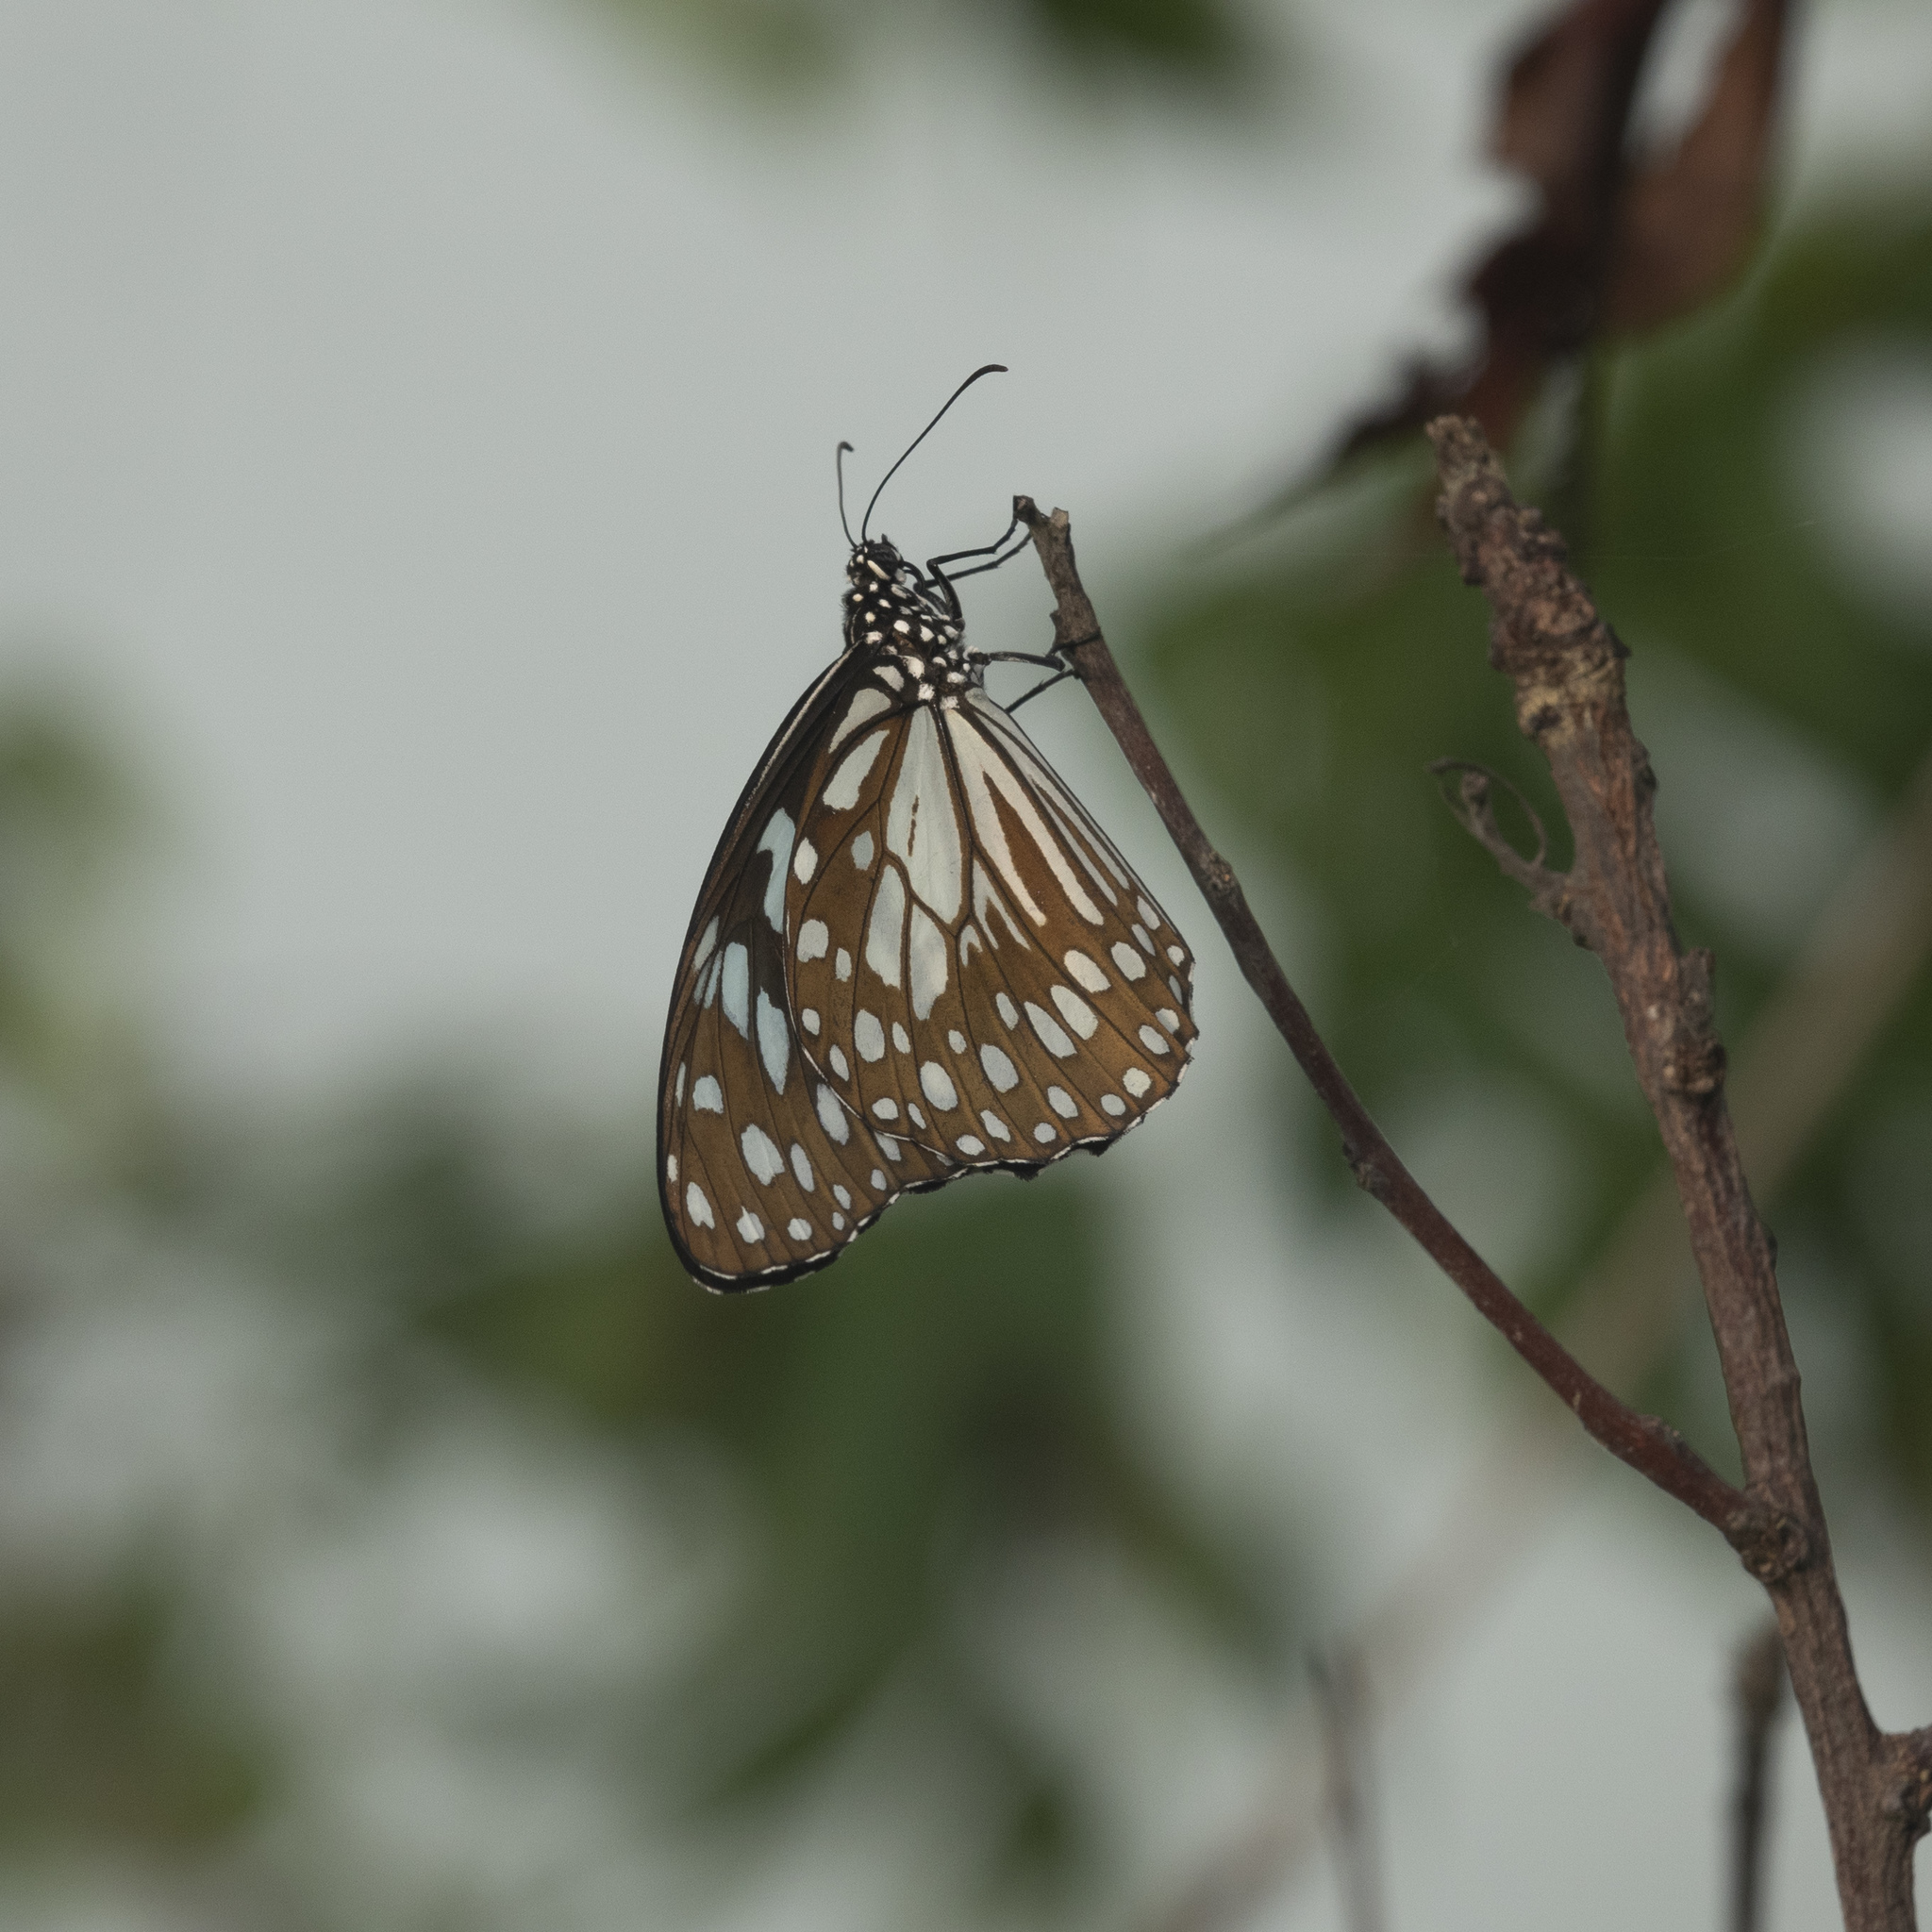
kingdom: Animalia
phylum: Arthropoda
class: Insecta
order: Lepidoptera
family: Nymphalidae
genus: Tirumala
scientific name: Tirumala limniace
